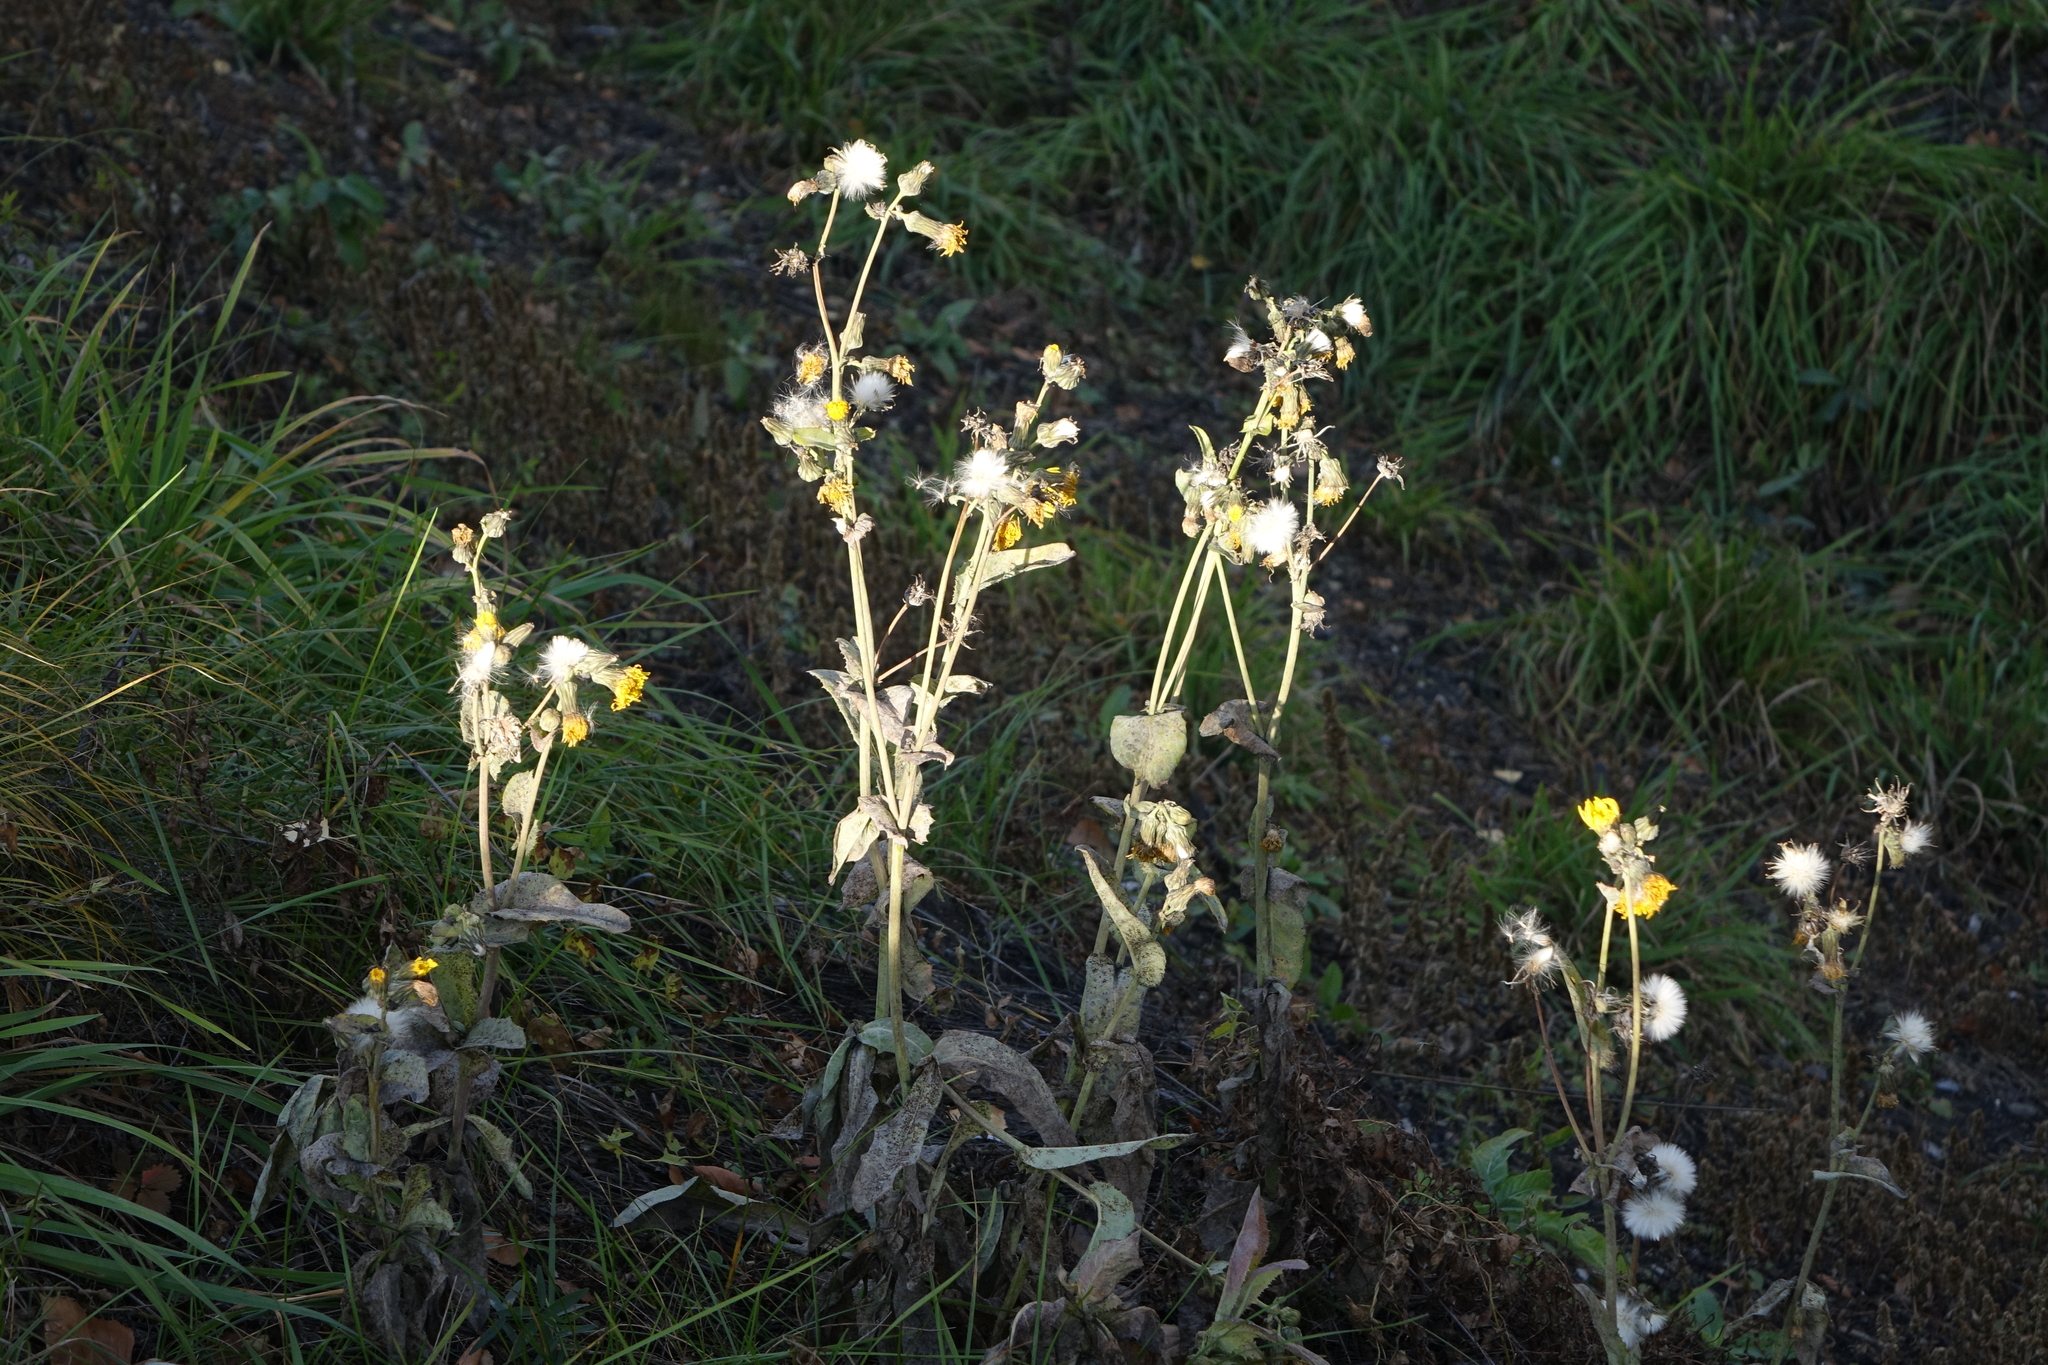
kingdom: Plantae
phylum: Tracheophyta
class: Magnoliopsida
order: Asterales
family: Asteraceae
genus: Sonchus
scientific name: Sonchus arvensis
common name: Perennial sow-thistle
